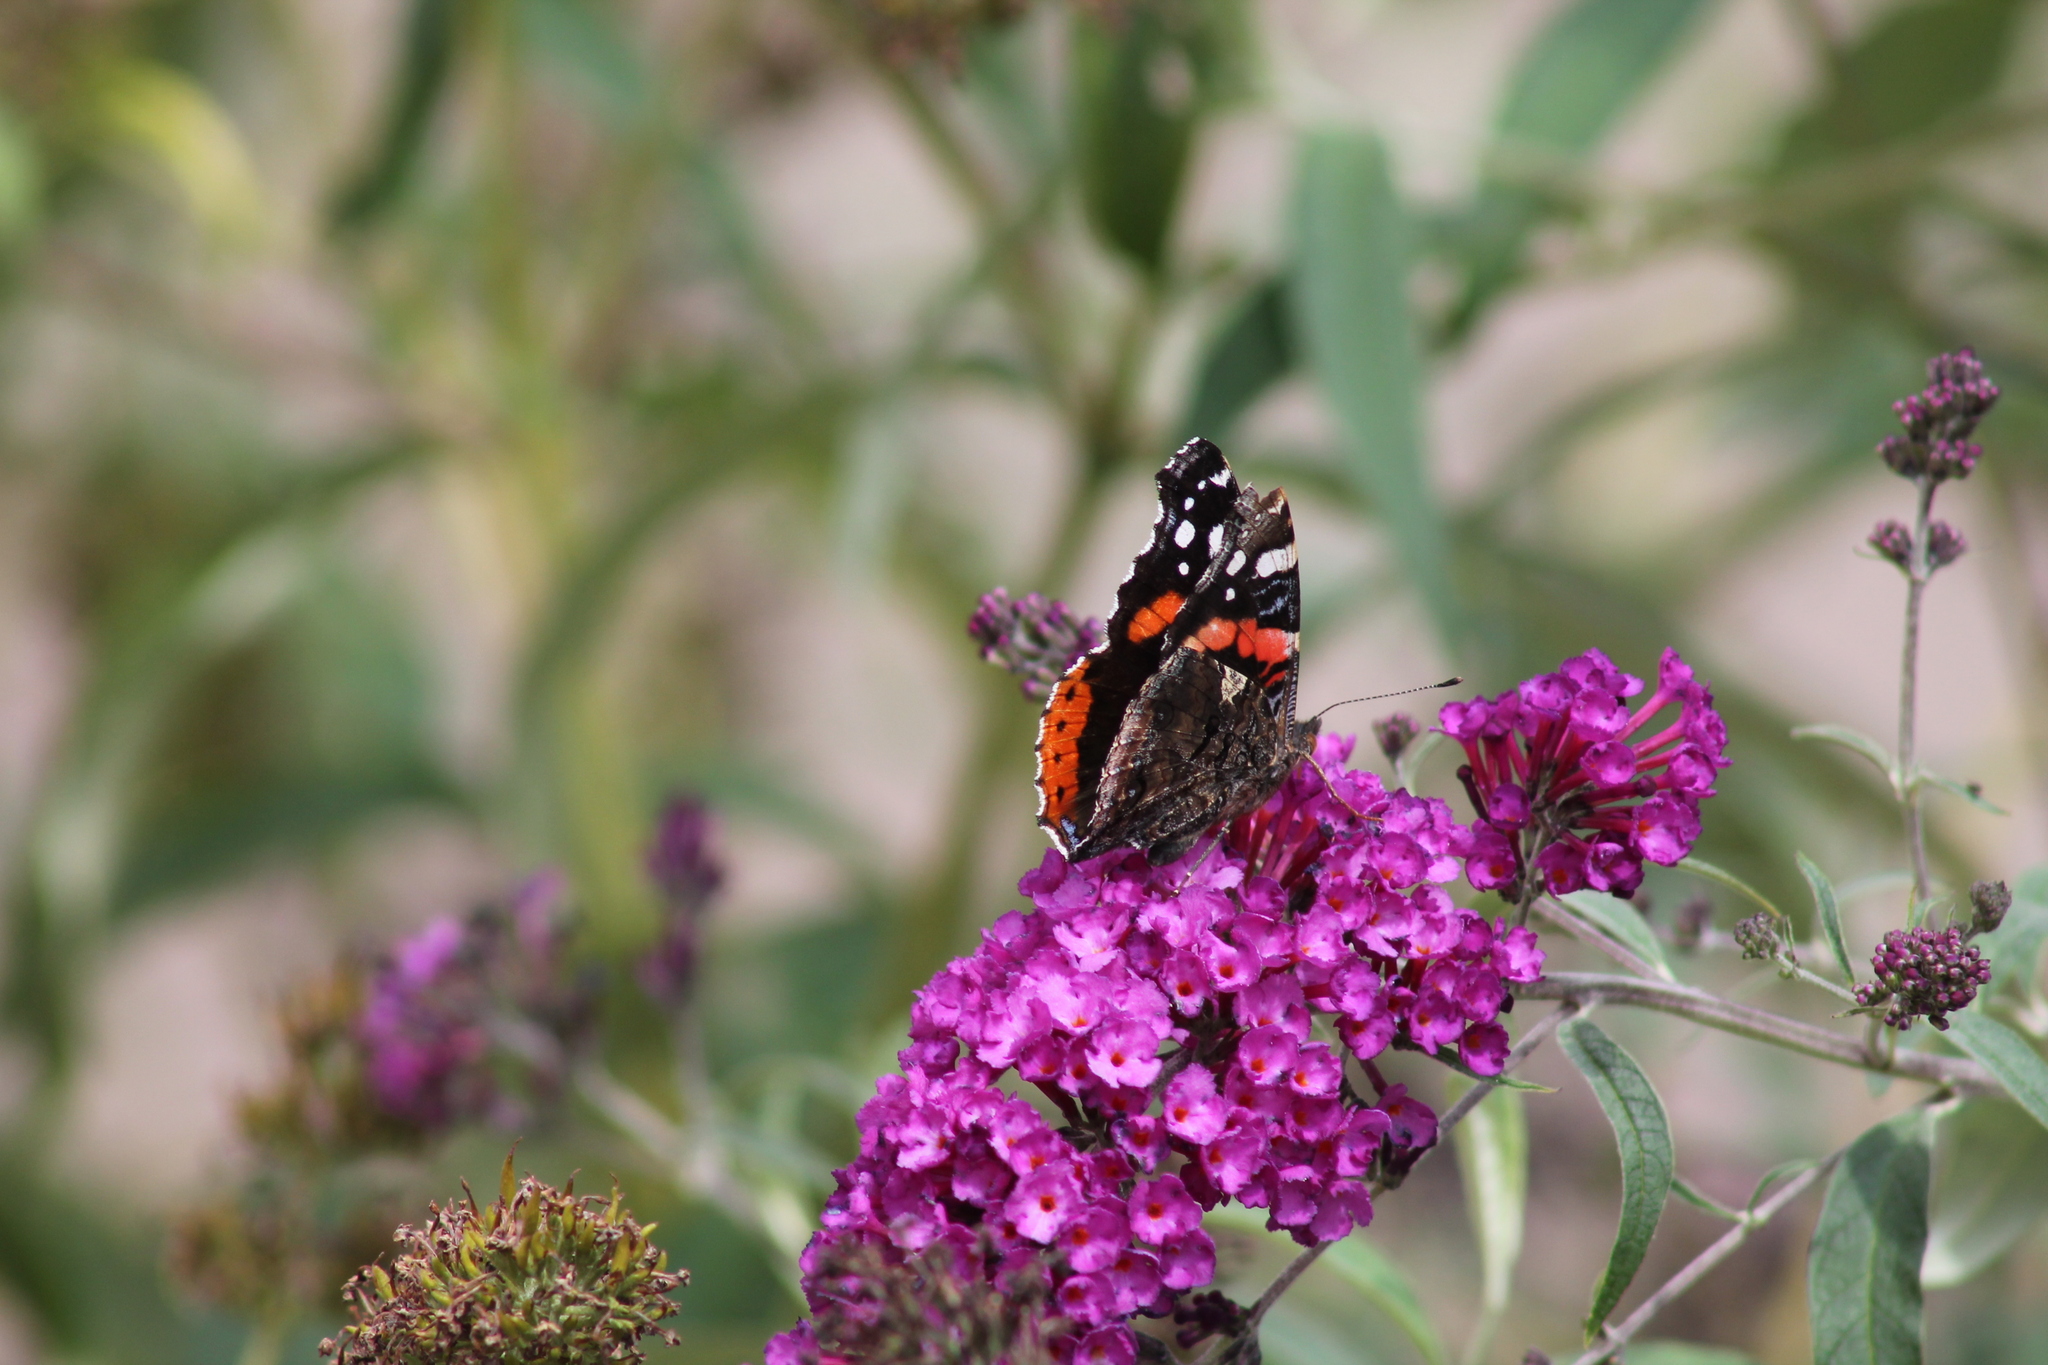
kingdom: Animalia
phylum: Arthropoda
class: Insecta
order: Lepidoptera
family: Nymphalidae
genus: Vanessa
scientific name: Vanessa atalanta
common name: Red admiral
